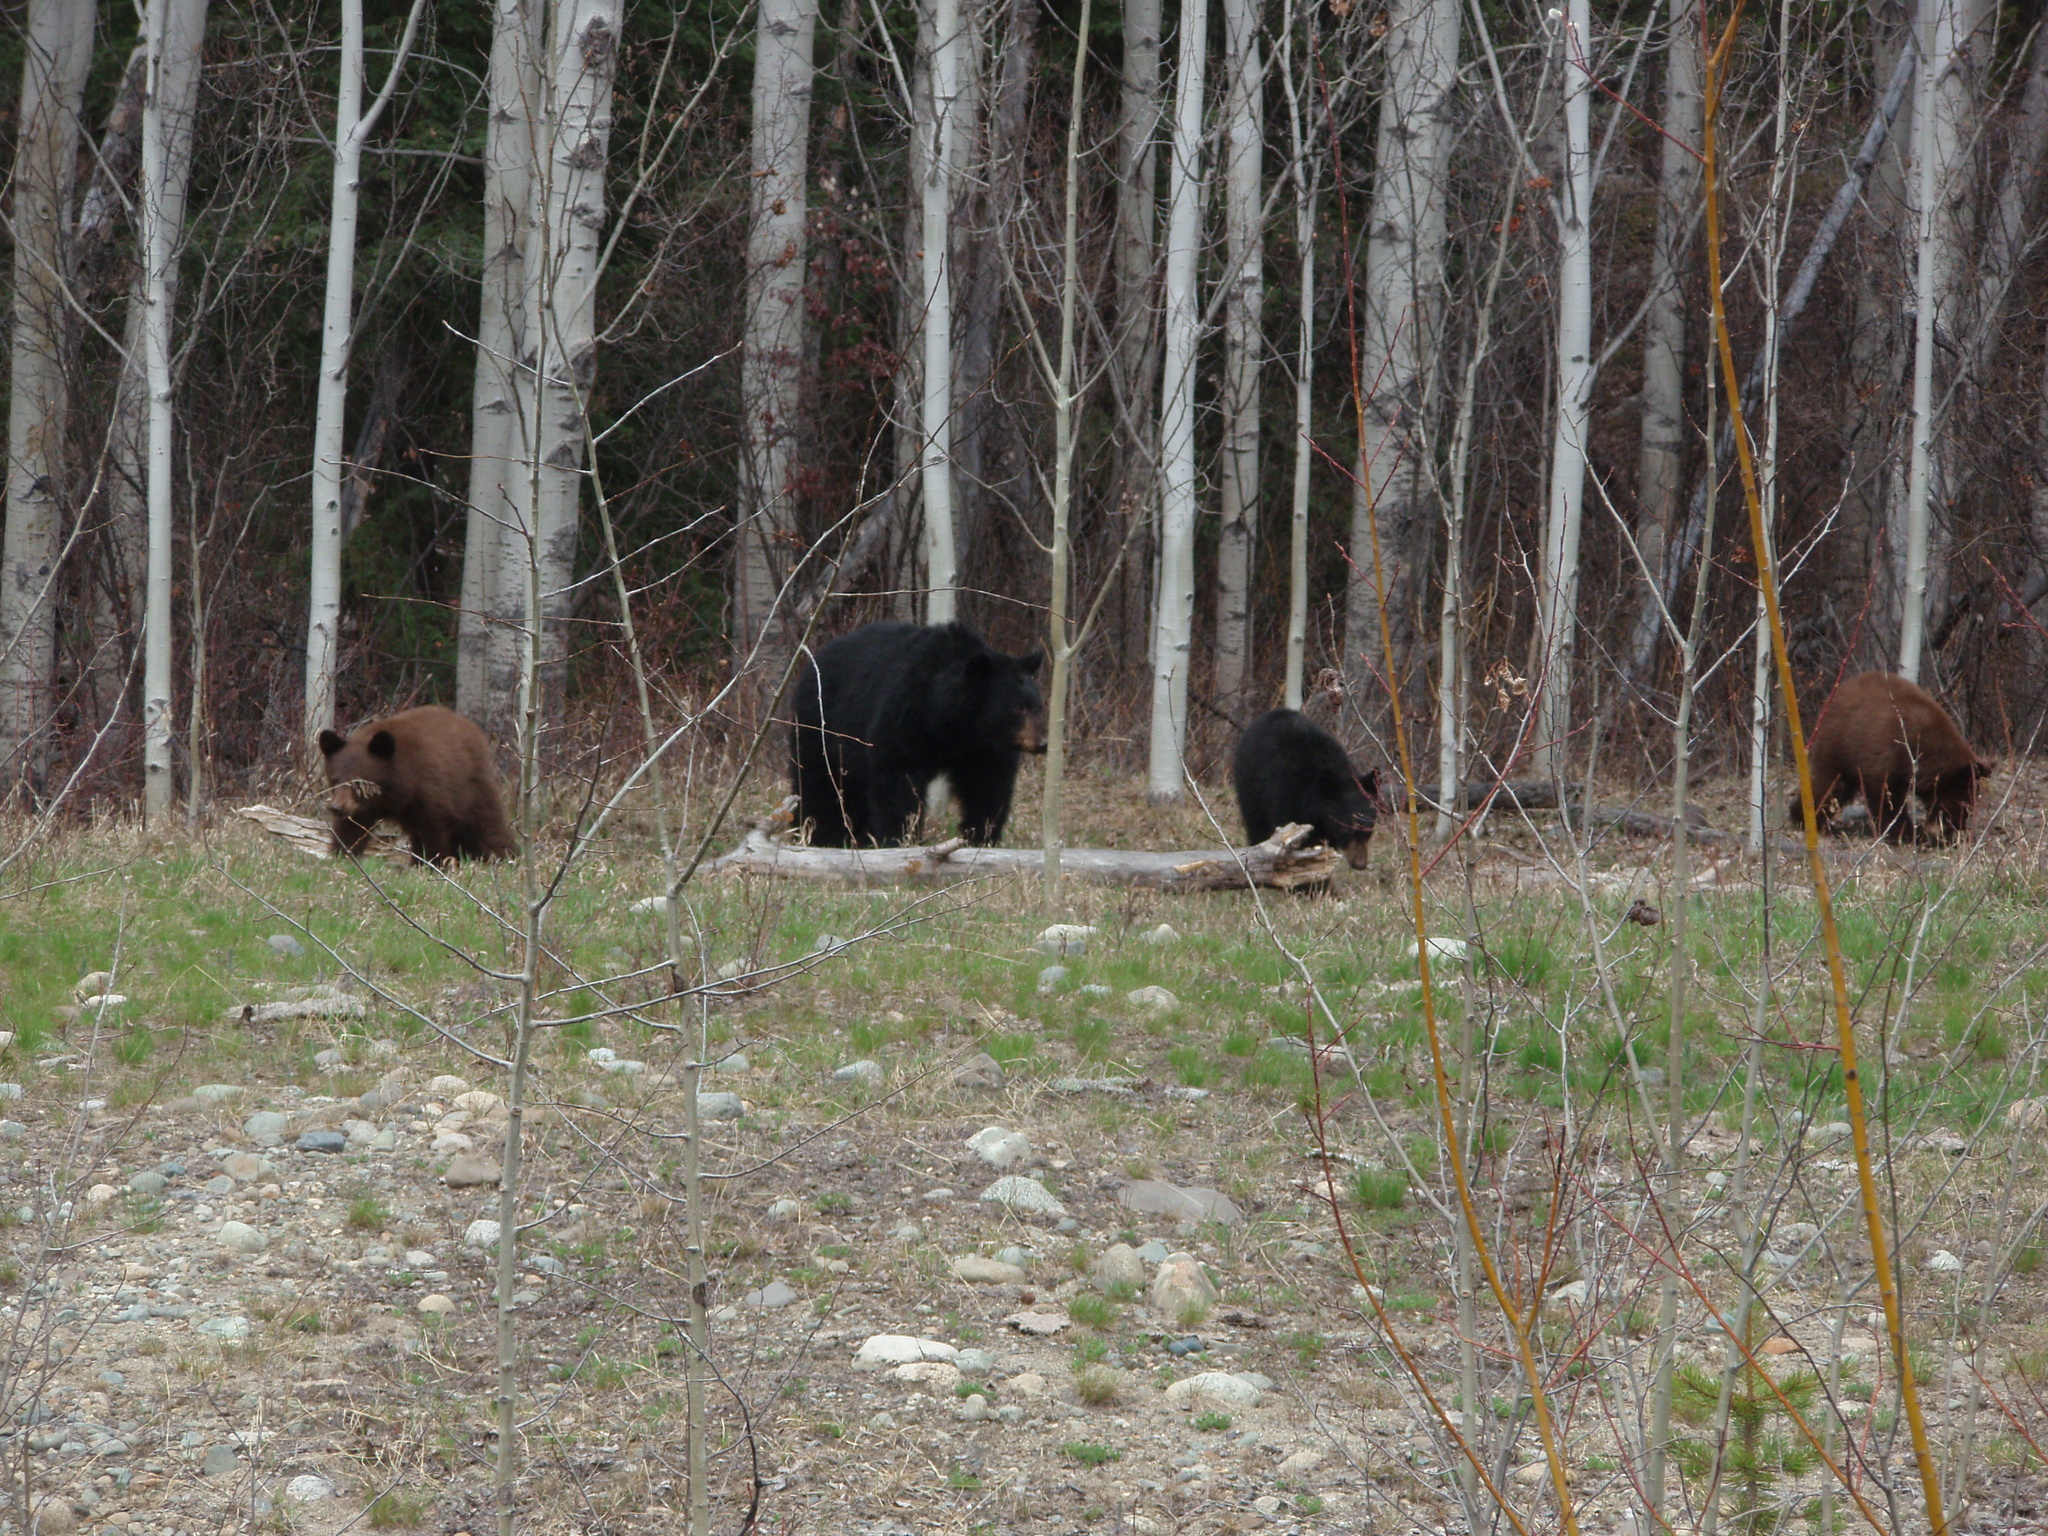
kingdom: Animalia
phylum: Chordata
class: Mammalia
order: Carnivora
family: Ursidae
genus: Ursus
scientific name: Ursus americanus
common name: American black bear
